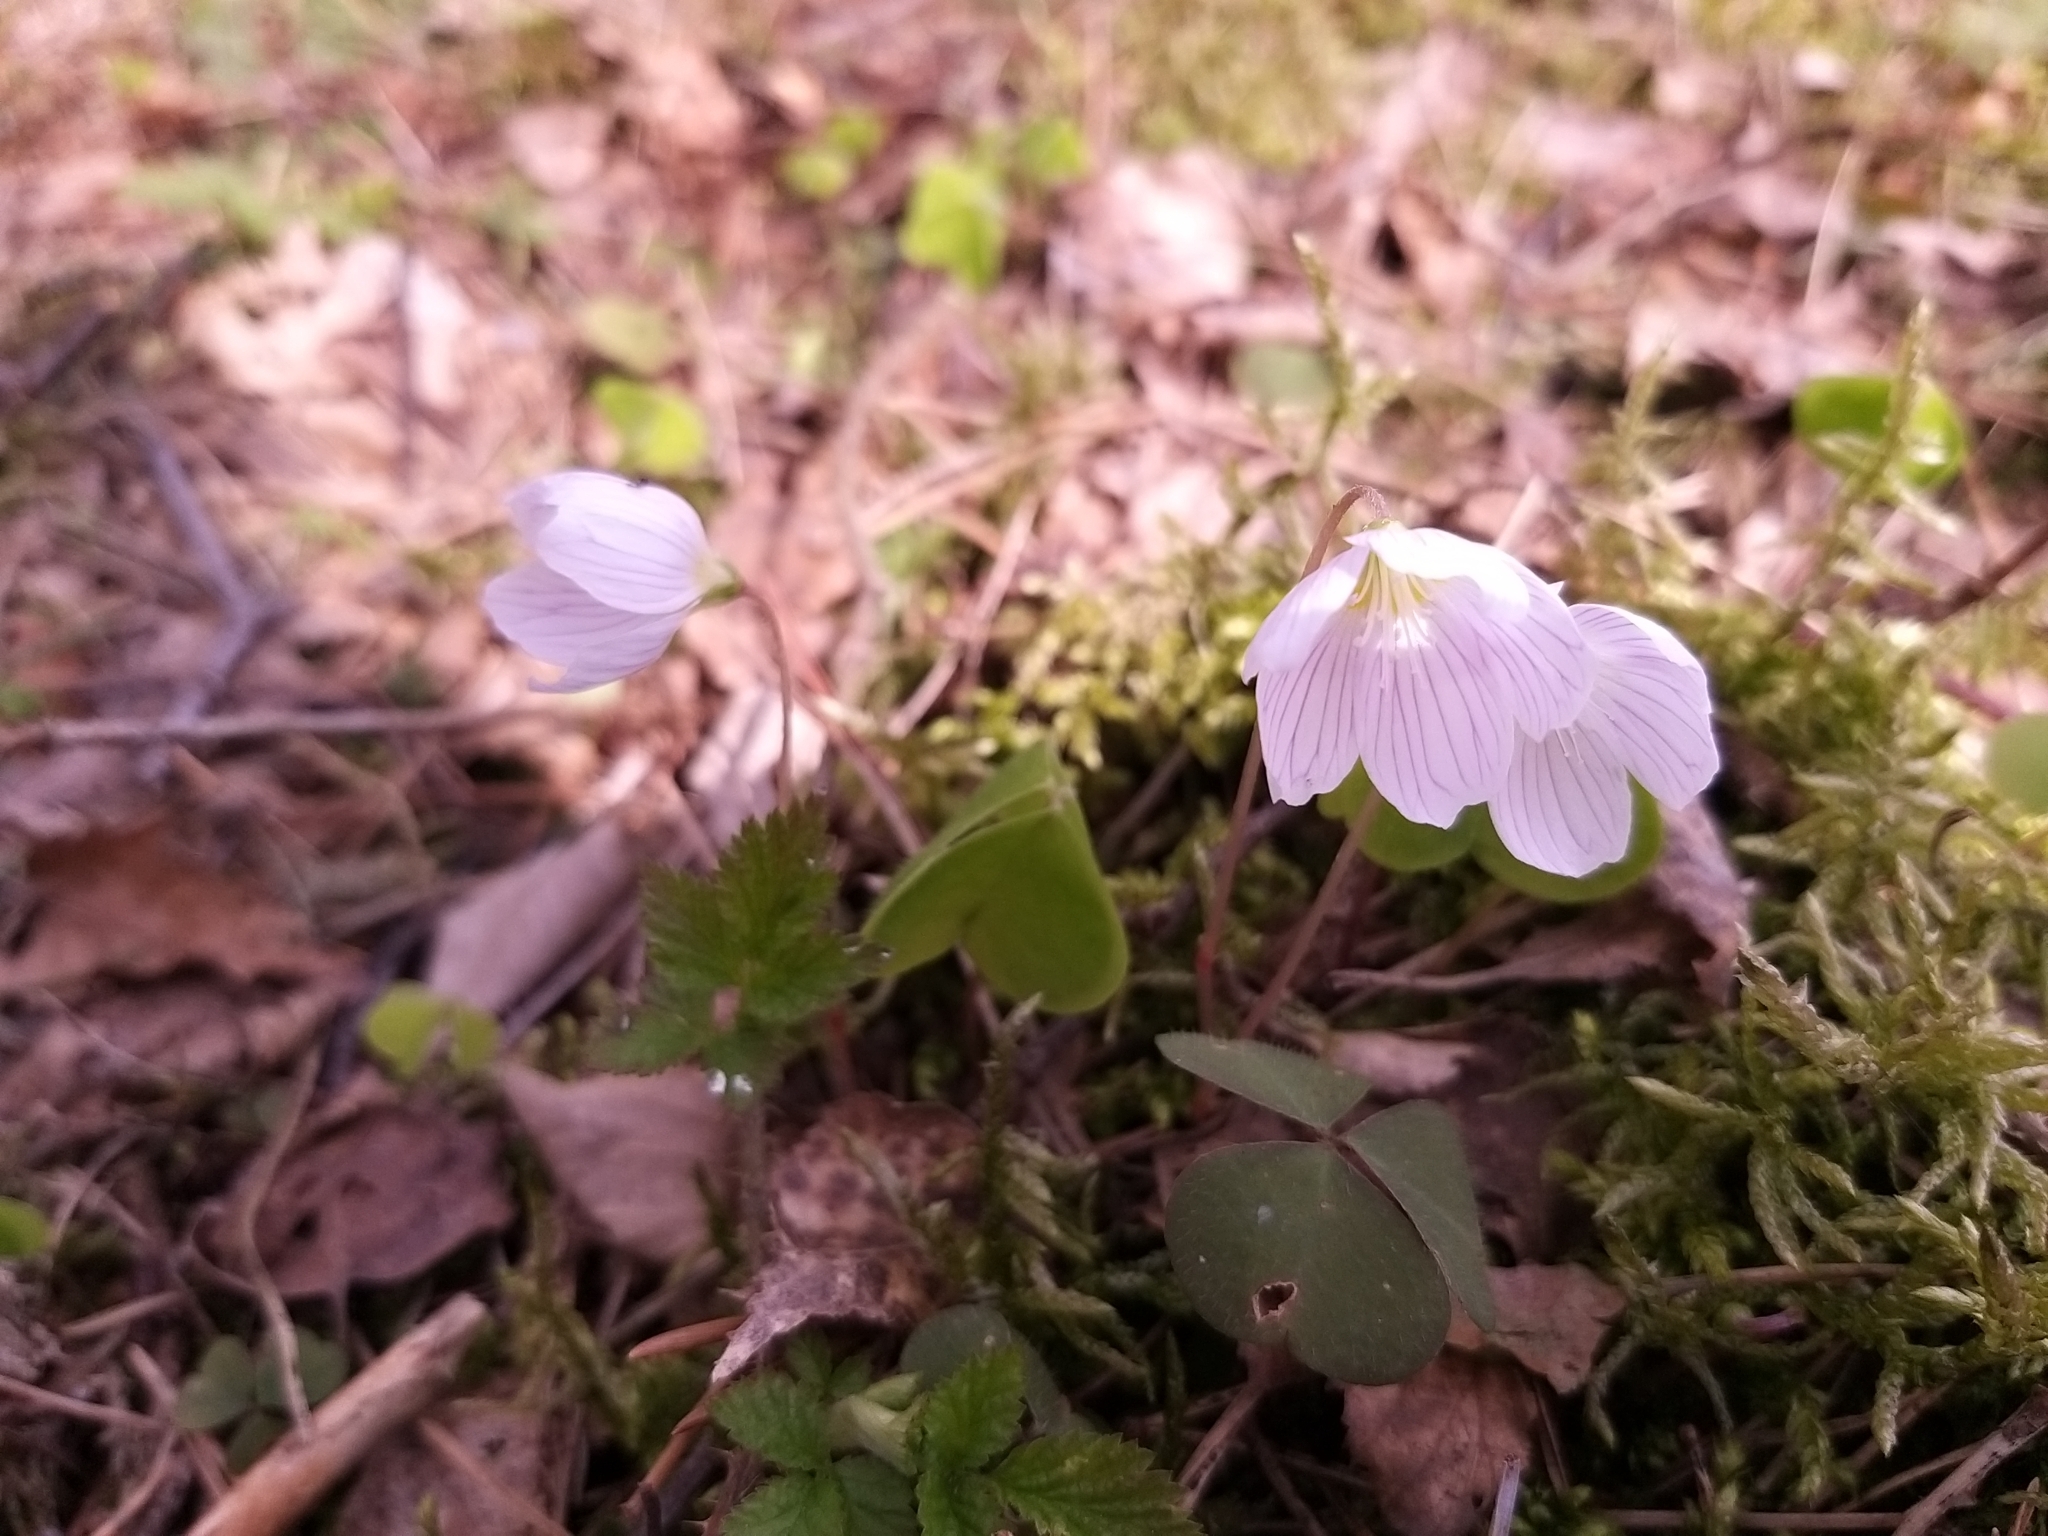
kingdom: Plantae
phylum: Tracheophyta
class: Magnoliopsida
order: Oxalidales
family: Oxalidaceae
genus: Oxalis
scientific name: Oxalis acetosella
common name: Wood-sorrel
